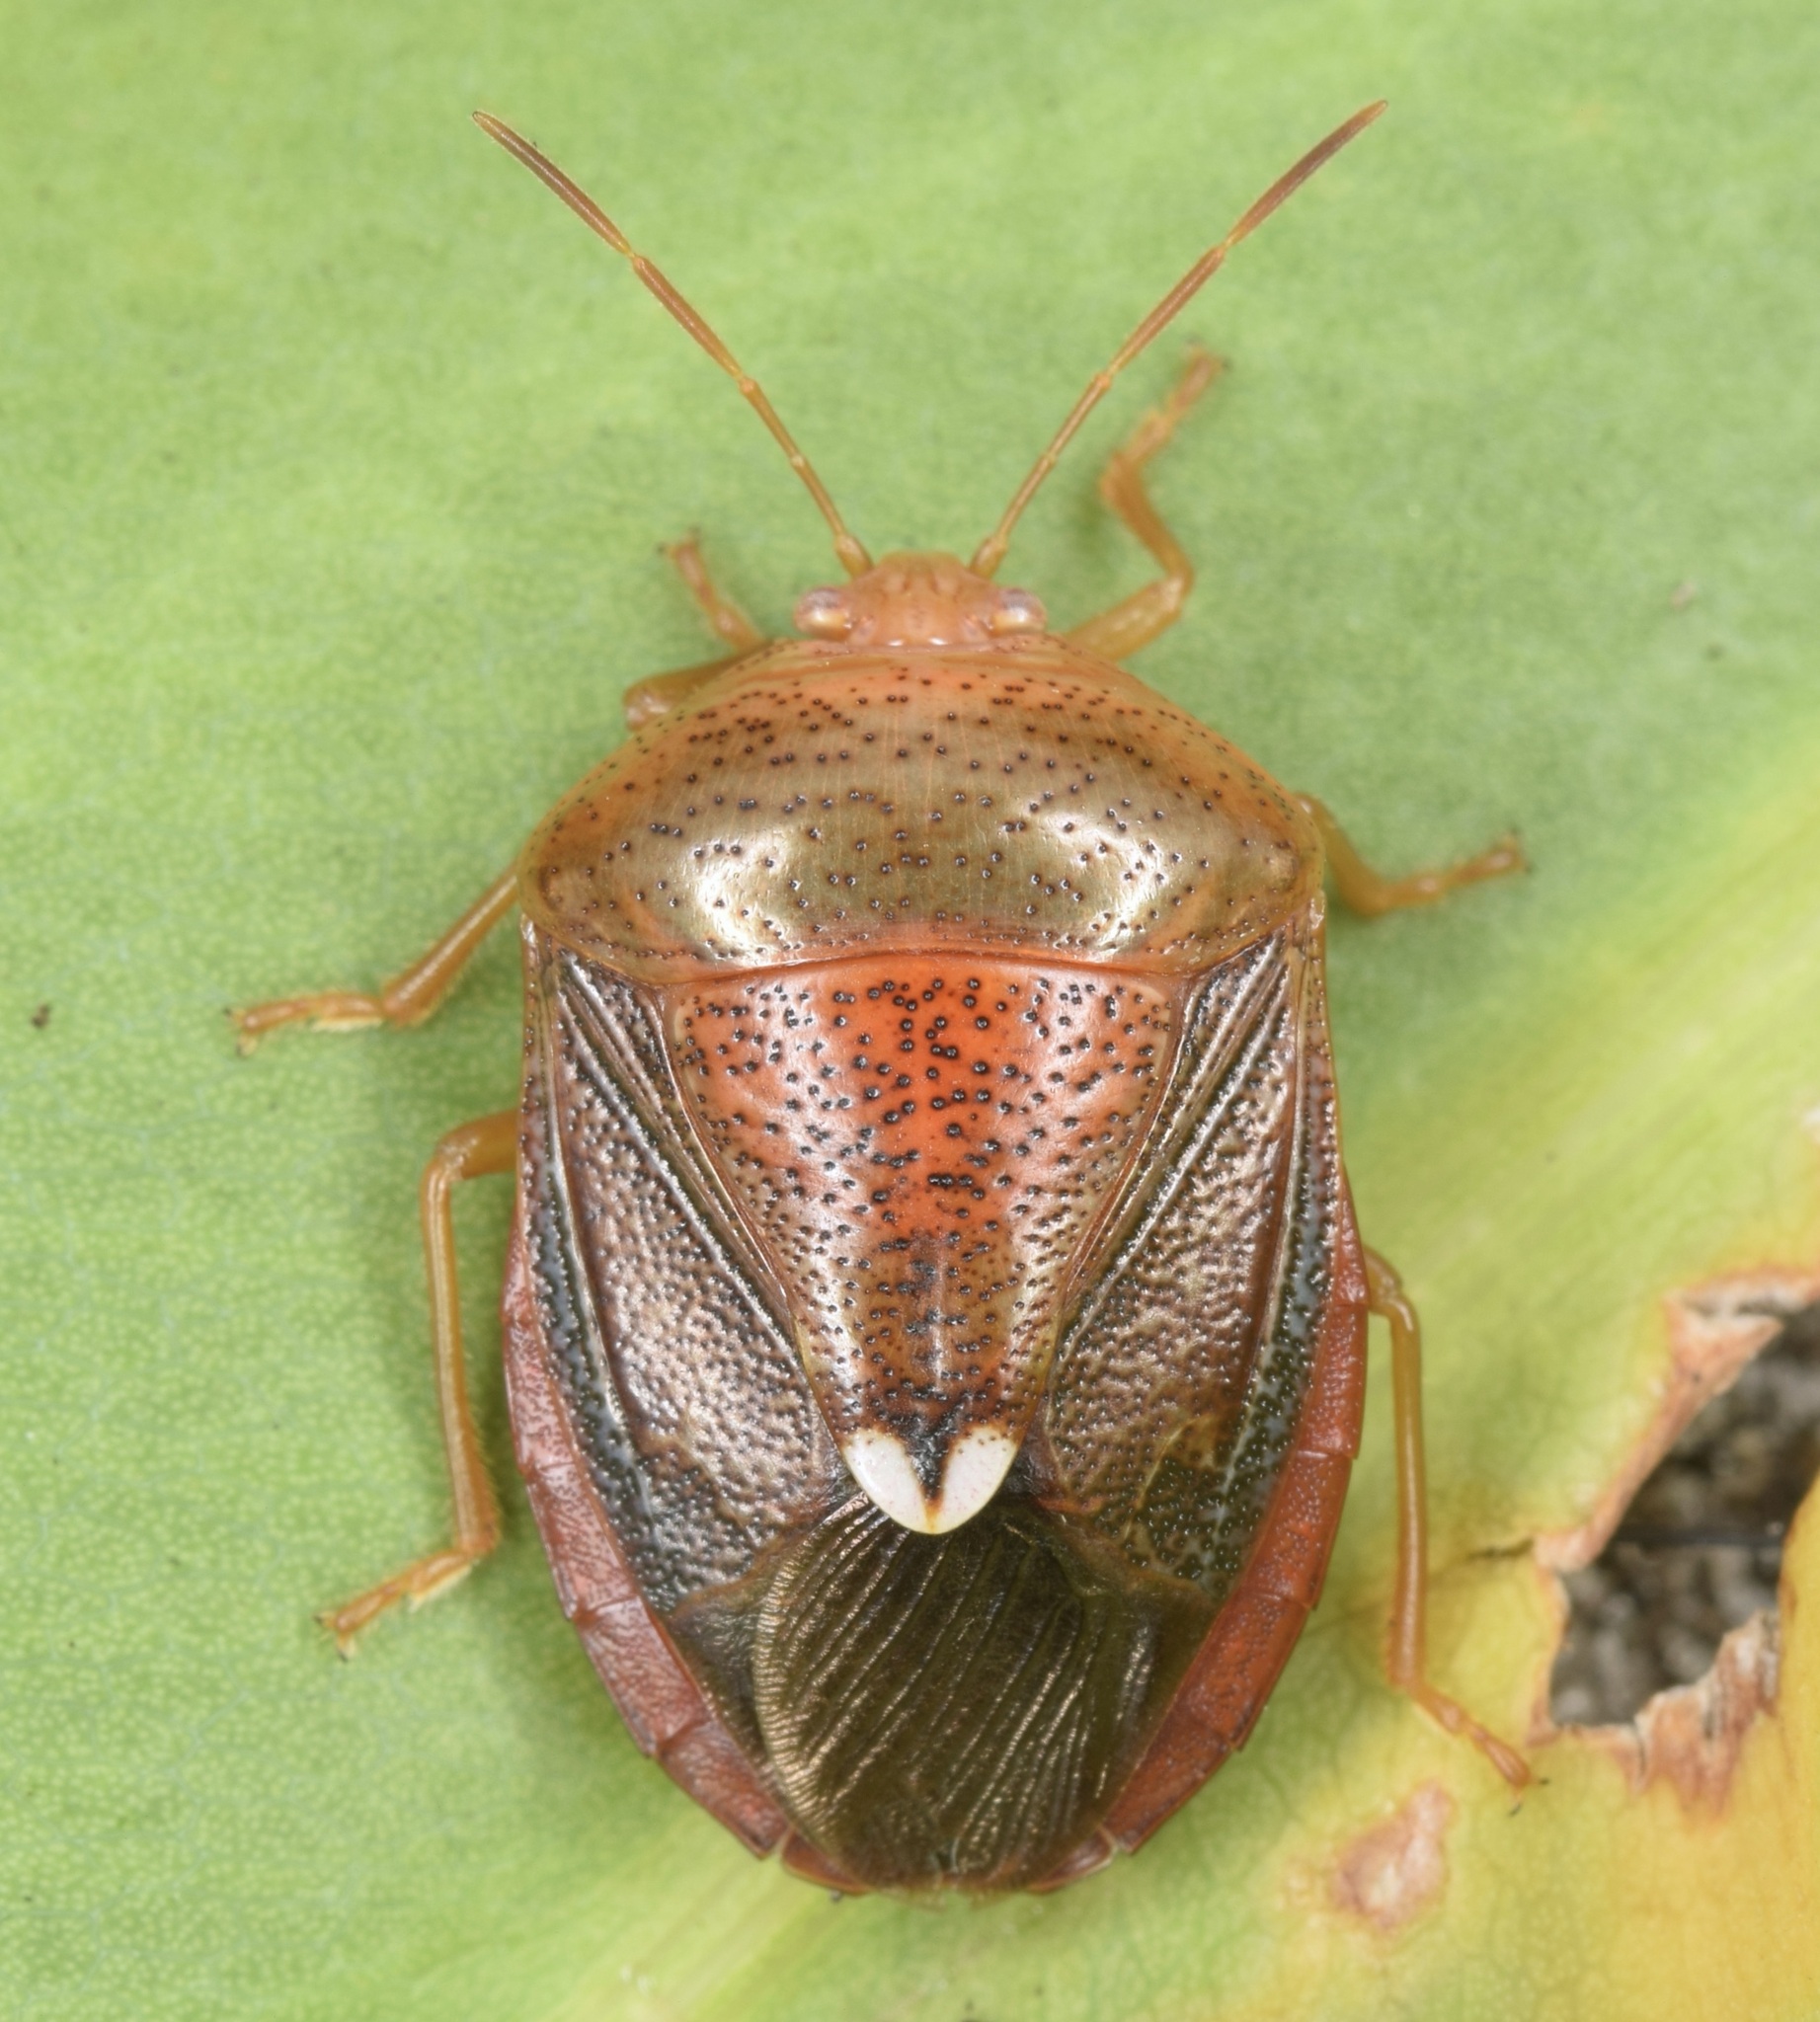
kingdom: Animalia
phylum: Arthropoda
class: Insecta
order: Hemiptera
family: Pentatomidae
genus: Edessa
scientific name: Edessa bifida
